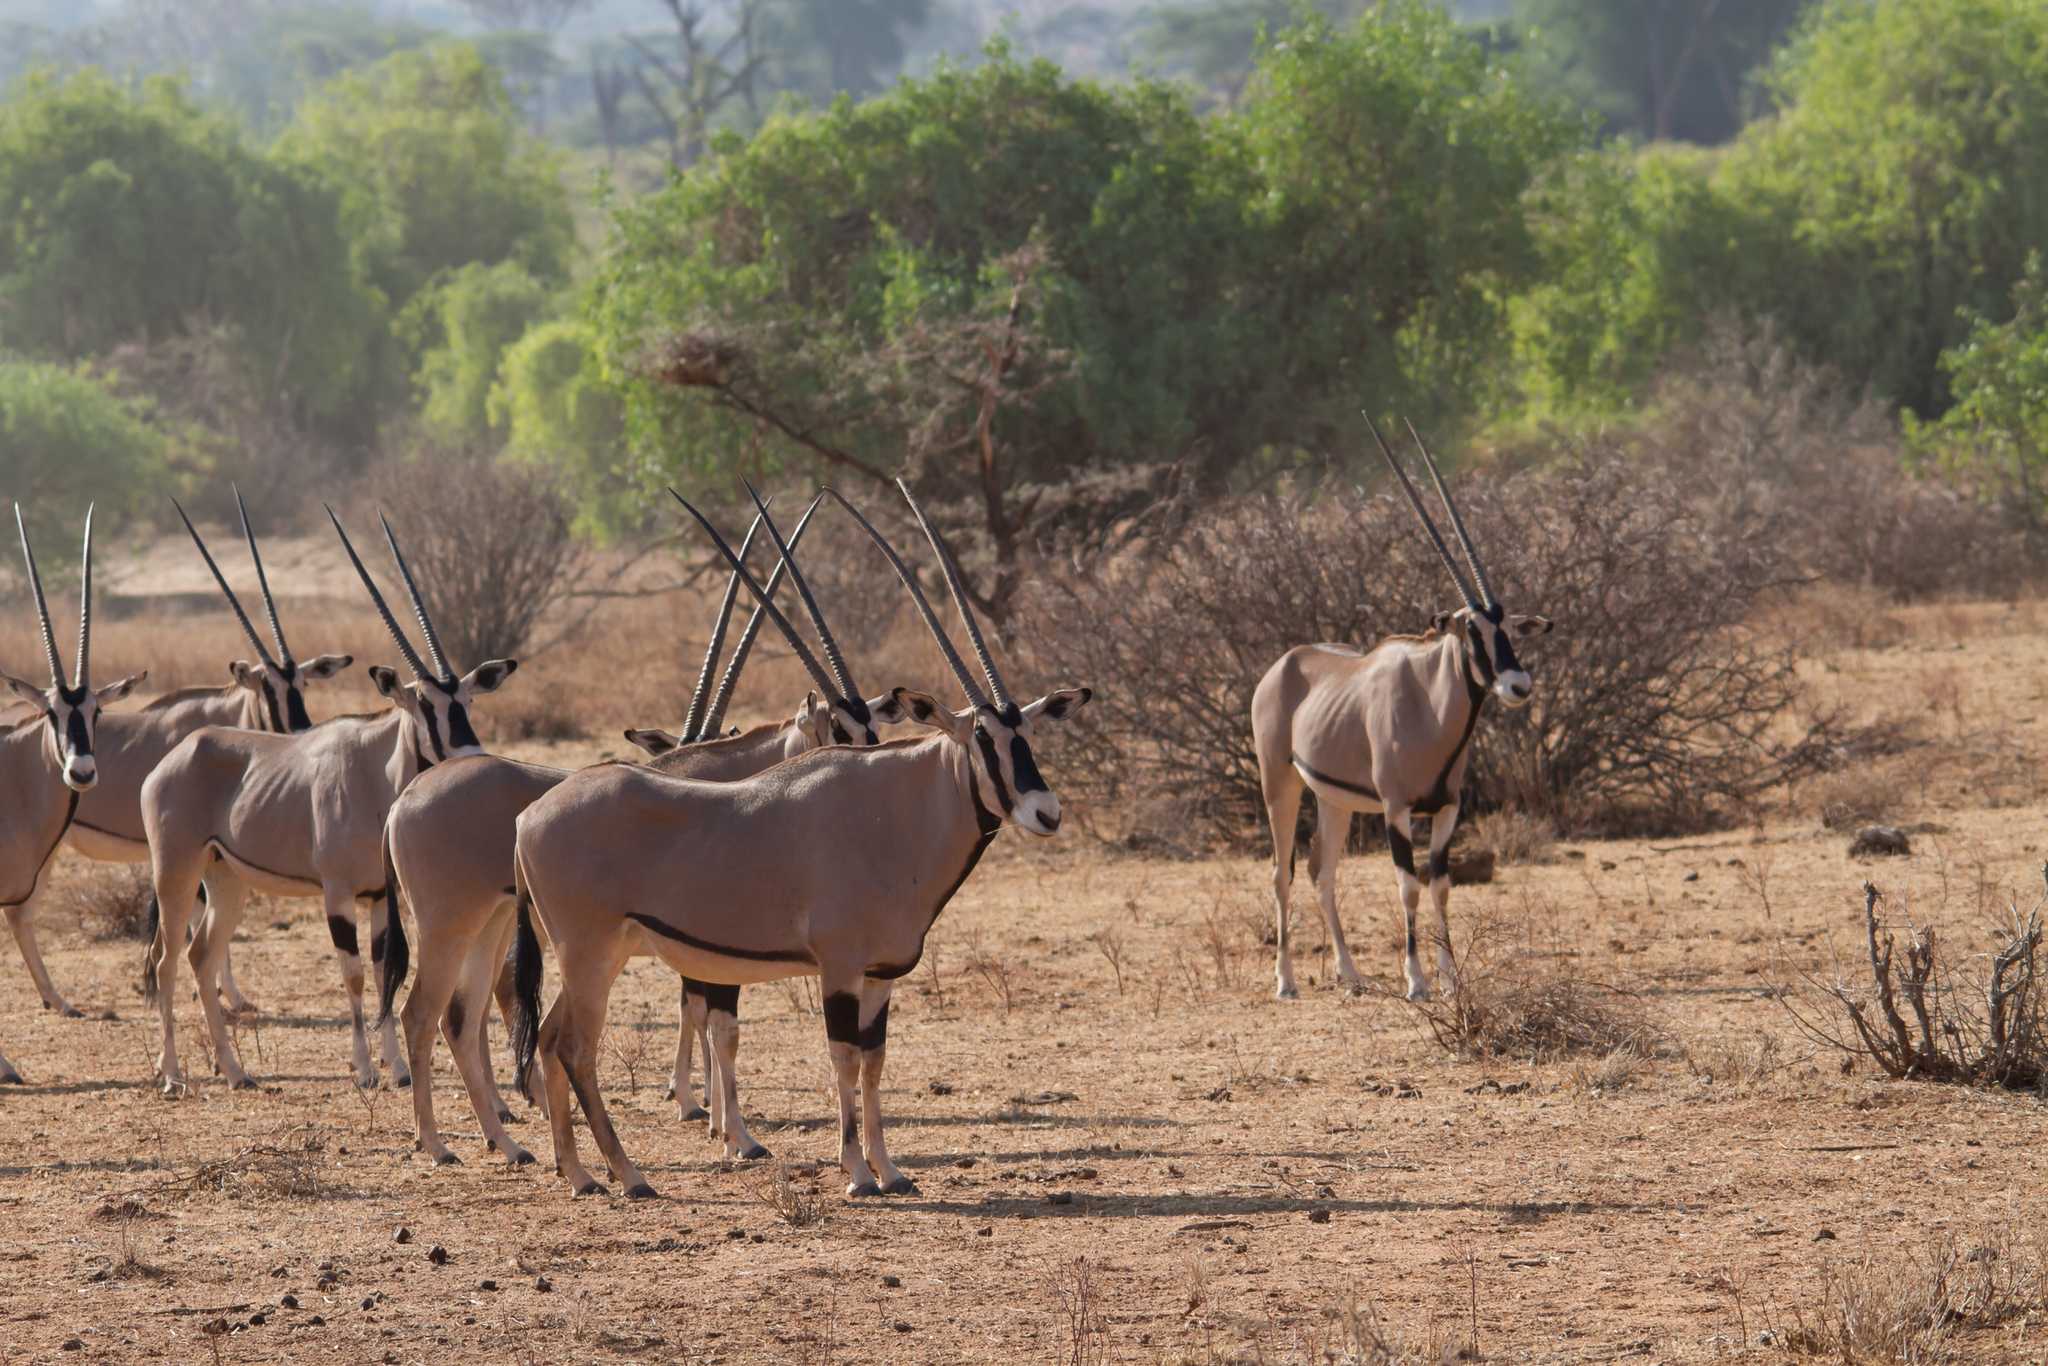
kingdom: Animalia
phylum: Chordata
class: Mammalia
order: Artiodactyla
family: Bovidae
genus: Oryx
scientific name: Oryx beisa
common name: Beisa
